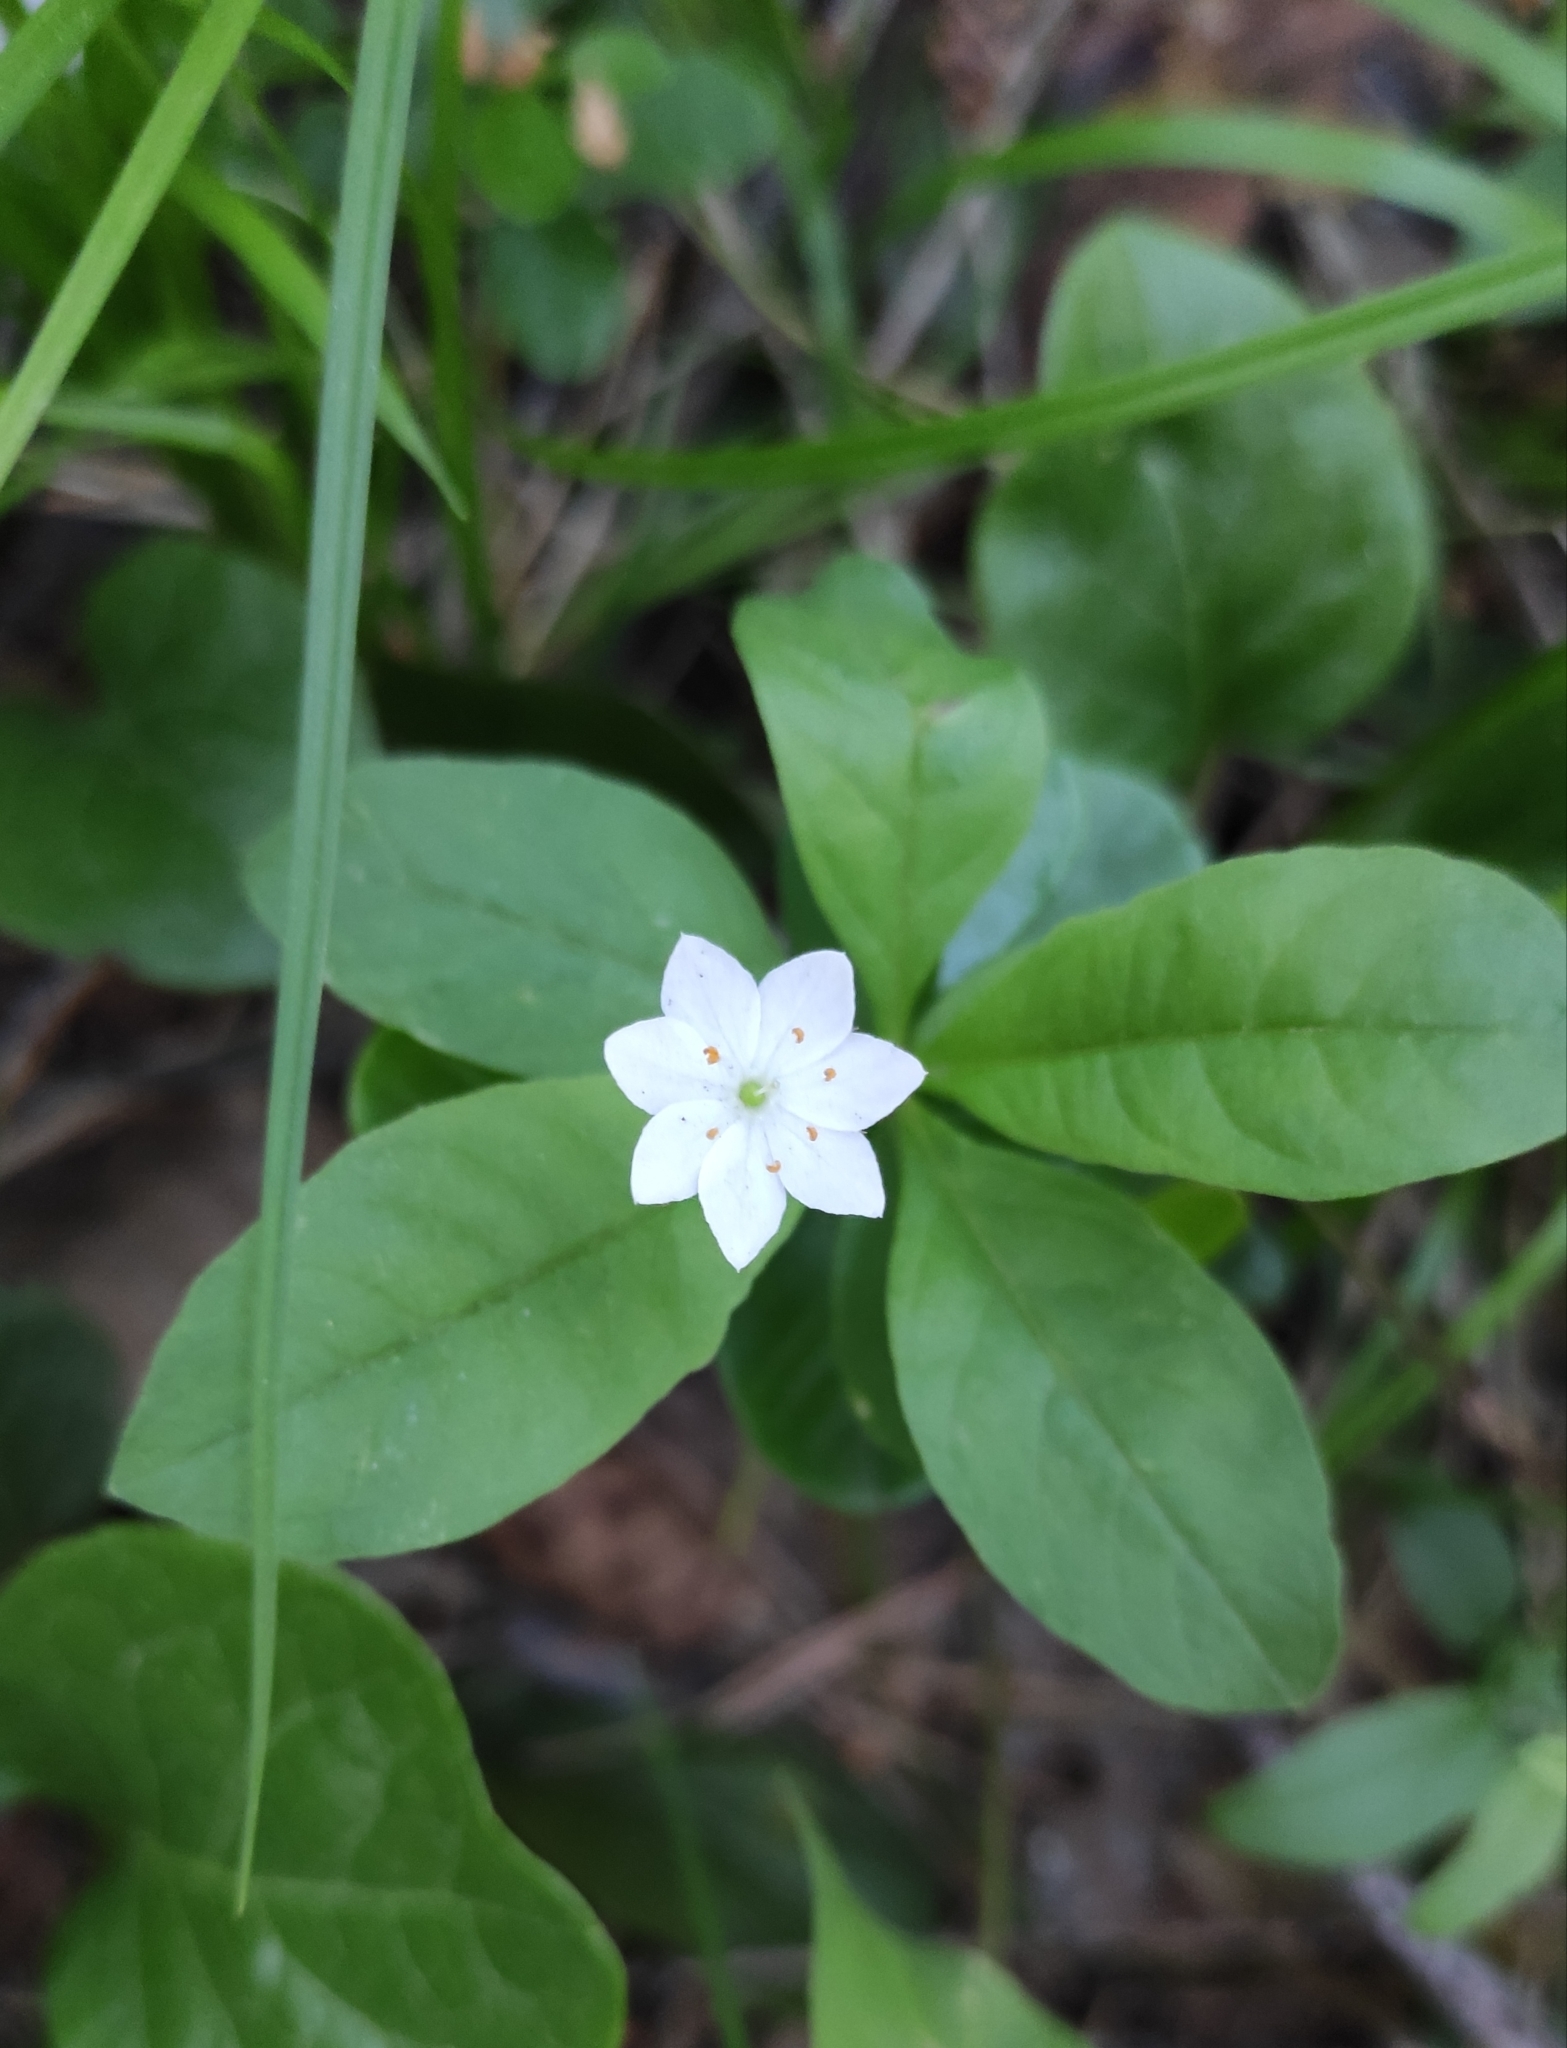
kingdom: Plantae
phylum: Tracheophyta
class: Magnoliopsida
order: Ericales
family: Primulaceae
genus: Lysimachia
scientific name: Lysimachia europaea
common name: Arctic starflower
